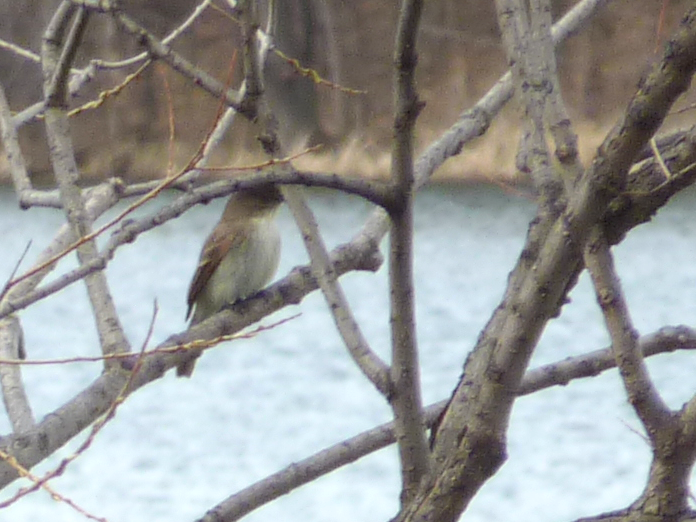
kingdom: Animalia
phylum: Chordata
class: Aves
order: Passeriformes
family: Tyrannidae
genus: Sayornis
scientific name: Sayornis phoebe
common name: Eastern phoebe
